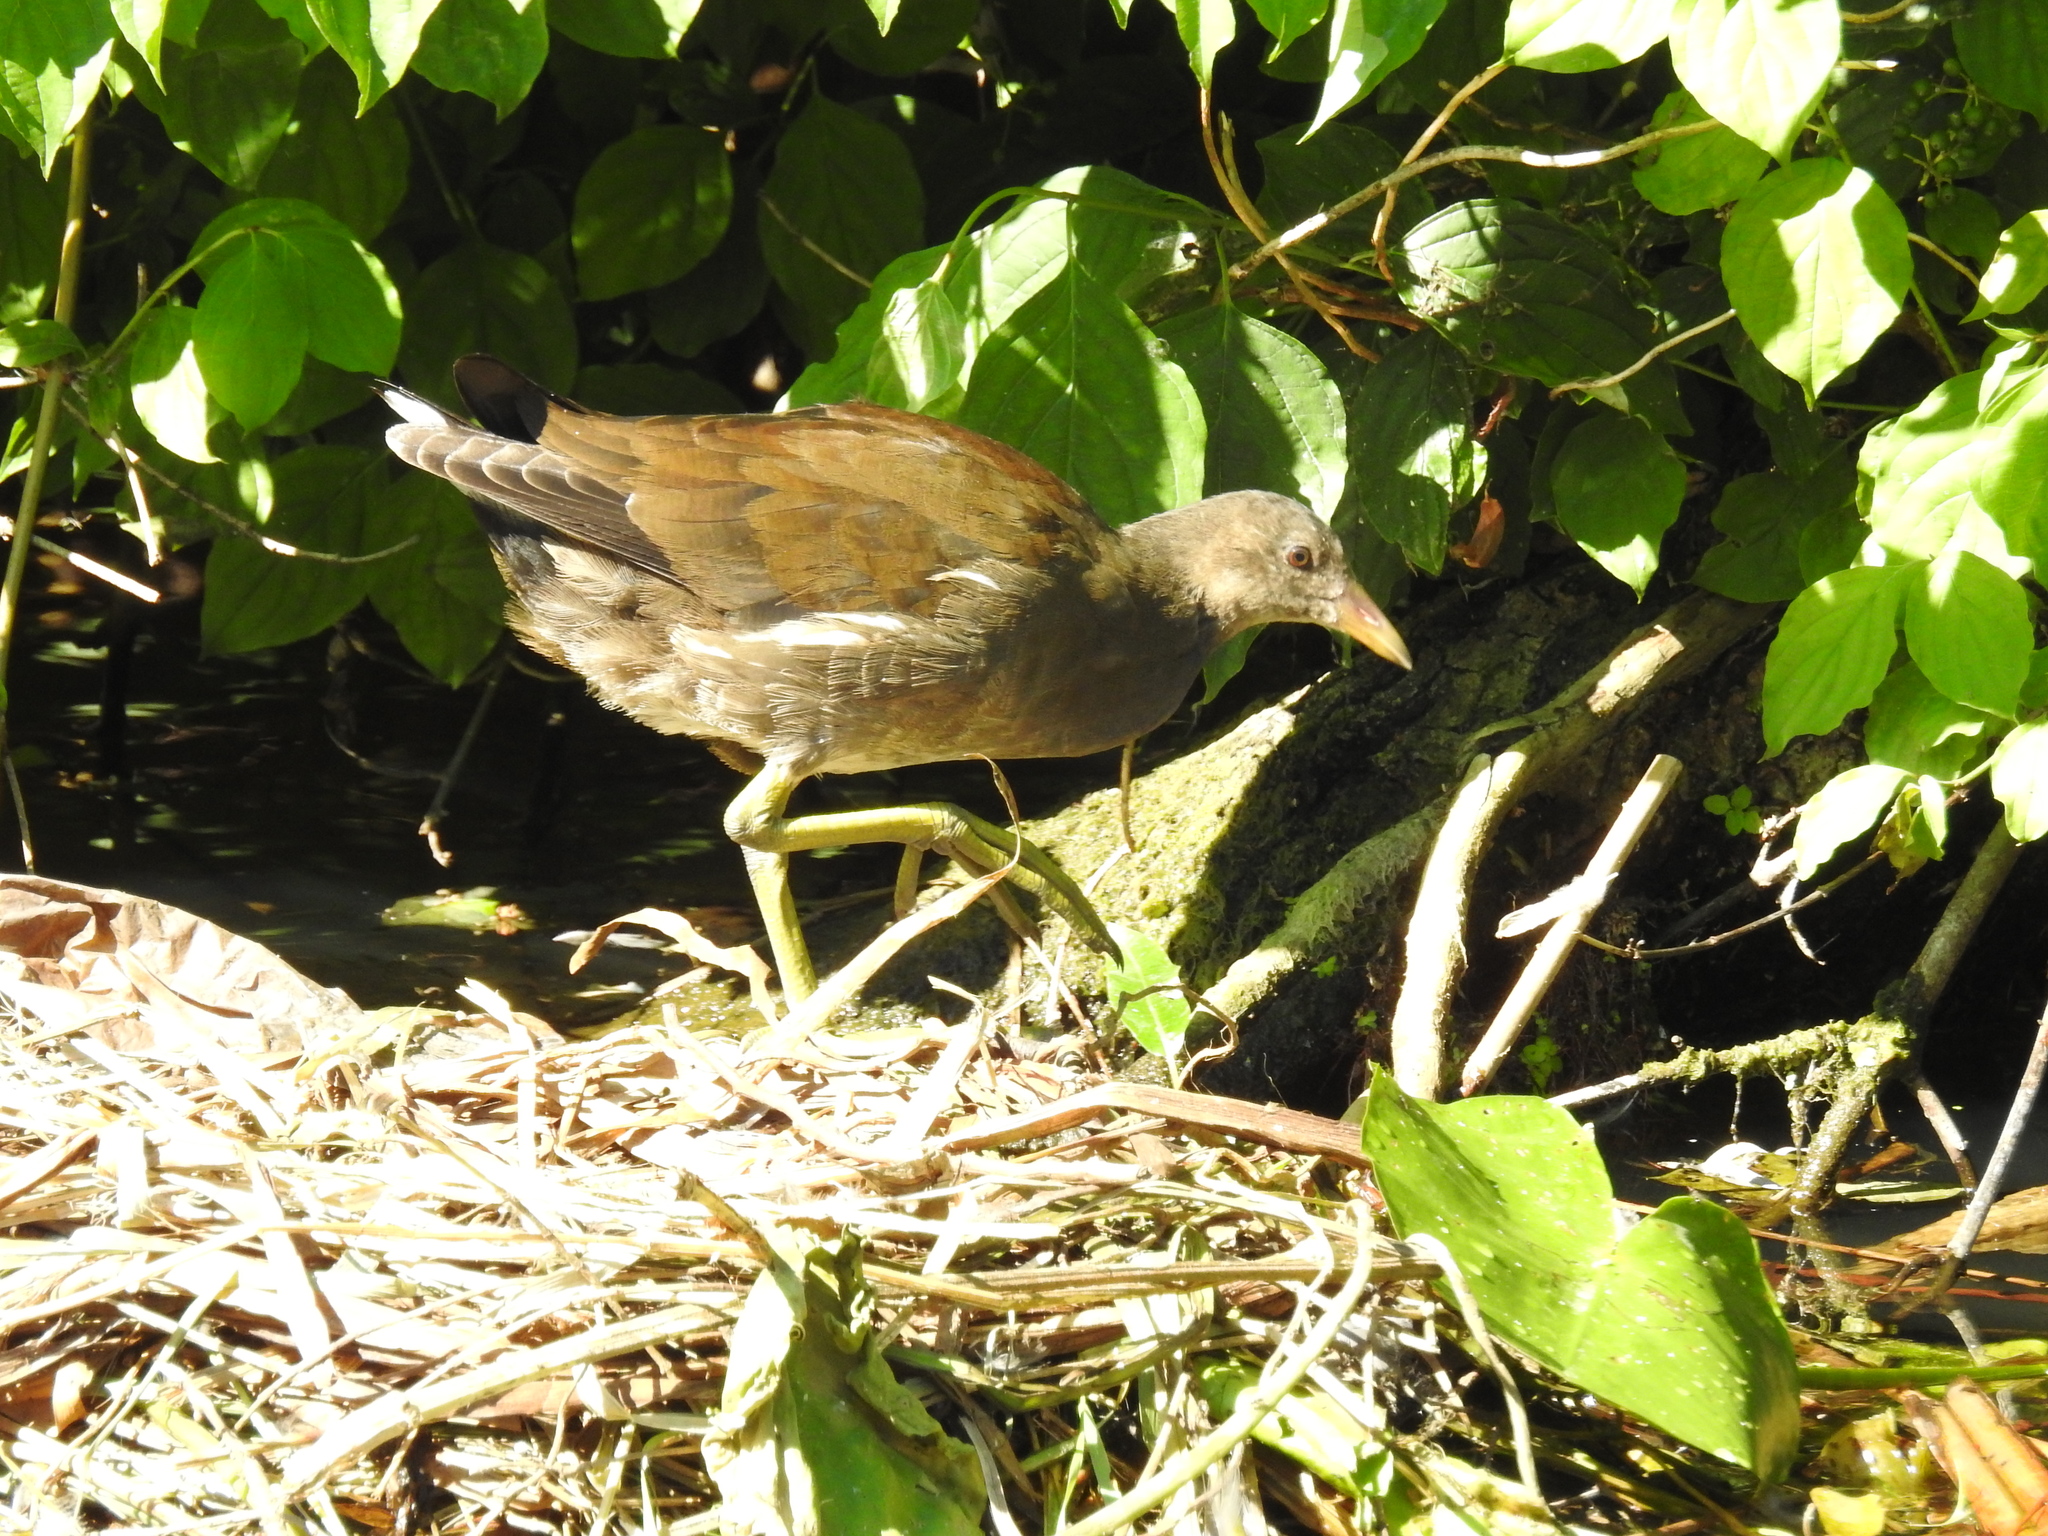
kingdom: Animalia
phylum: Chordata
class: Aves
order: Gruiformes
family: Rallidae
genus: Gallinula
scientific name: Gallinula chloropus
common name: Common moorhen
